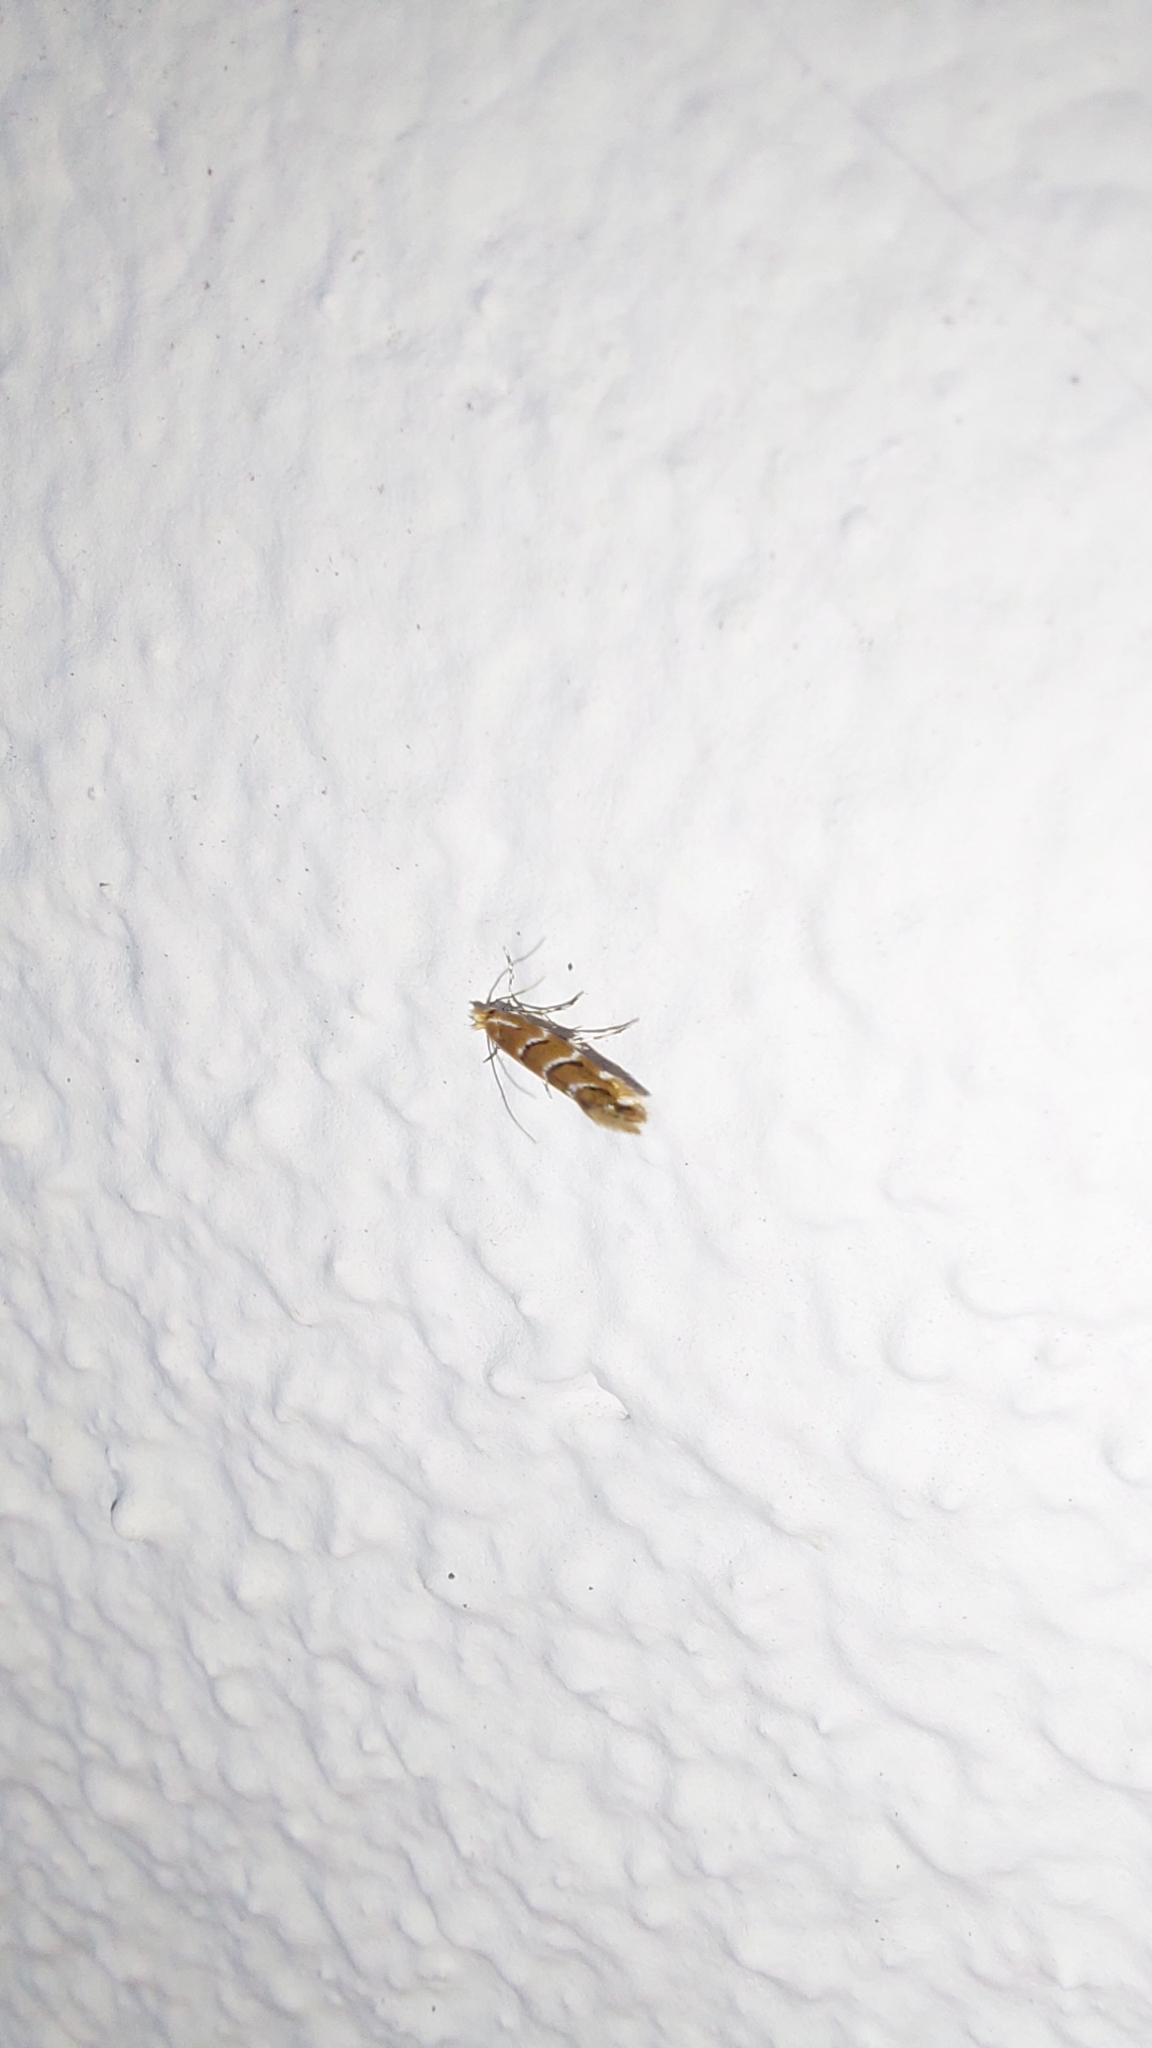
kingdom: Animalia
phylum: Arthropoda
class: Insecta
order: Lepidoptera
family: Gracillariidae
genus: Cameraria
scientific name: Cameraria ohridella
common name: Horse-chestnut leaf-miner
